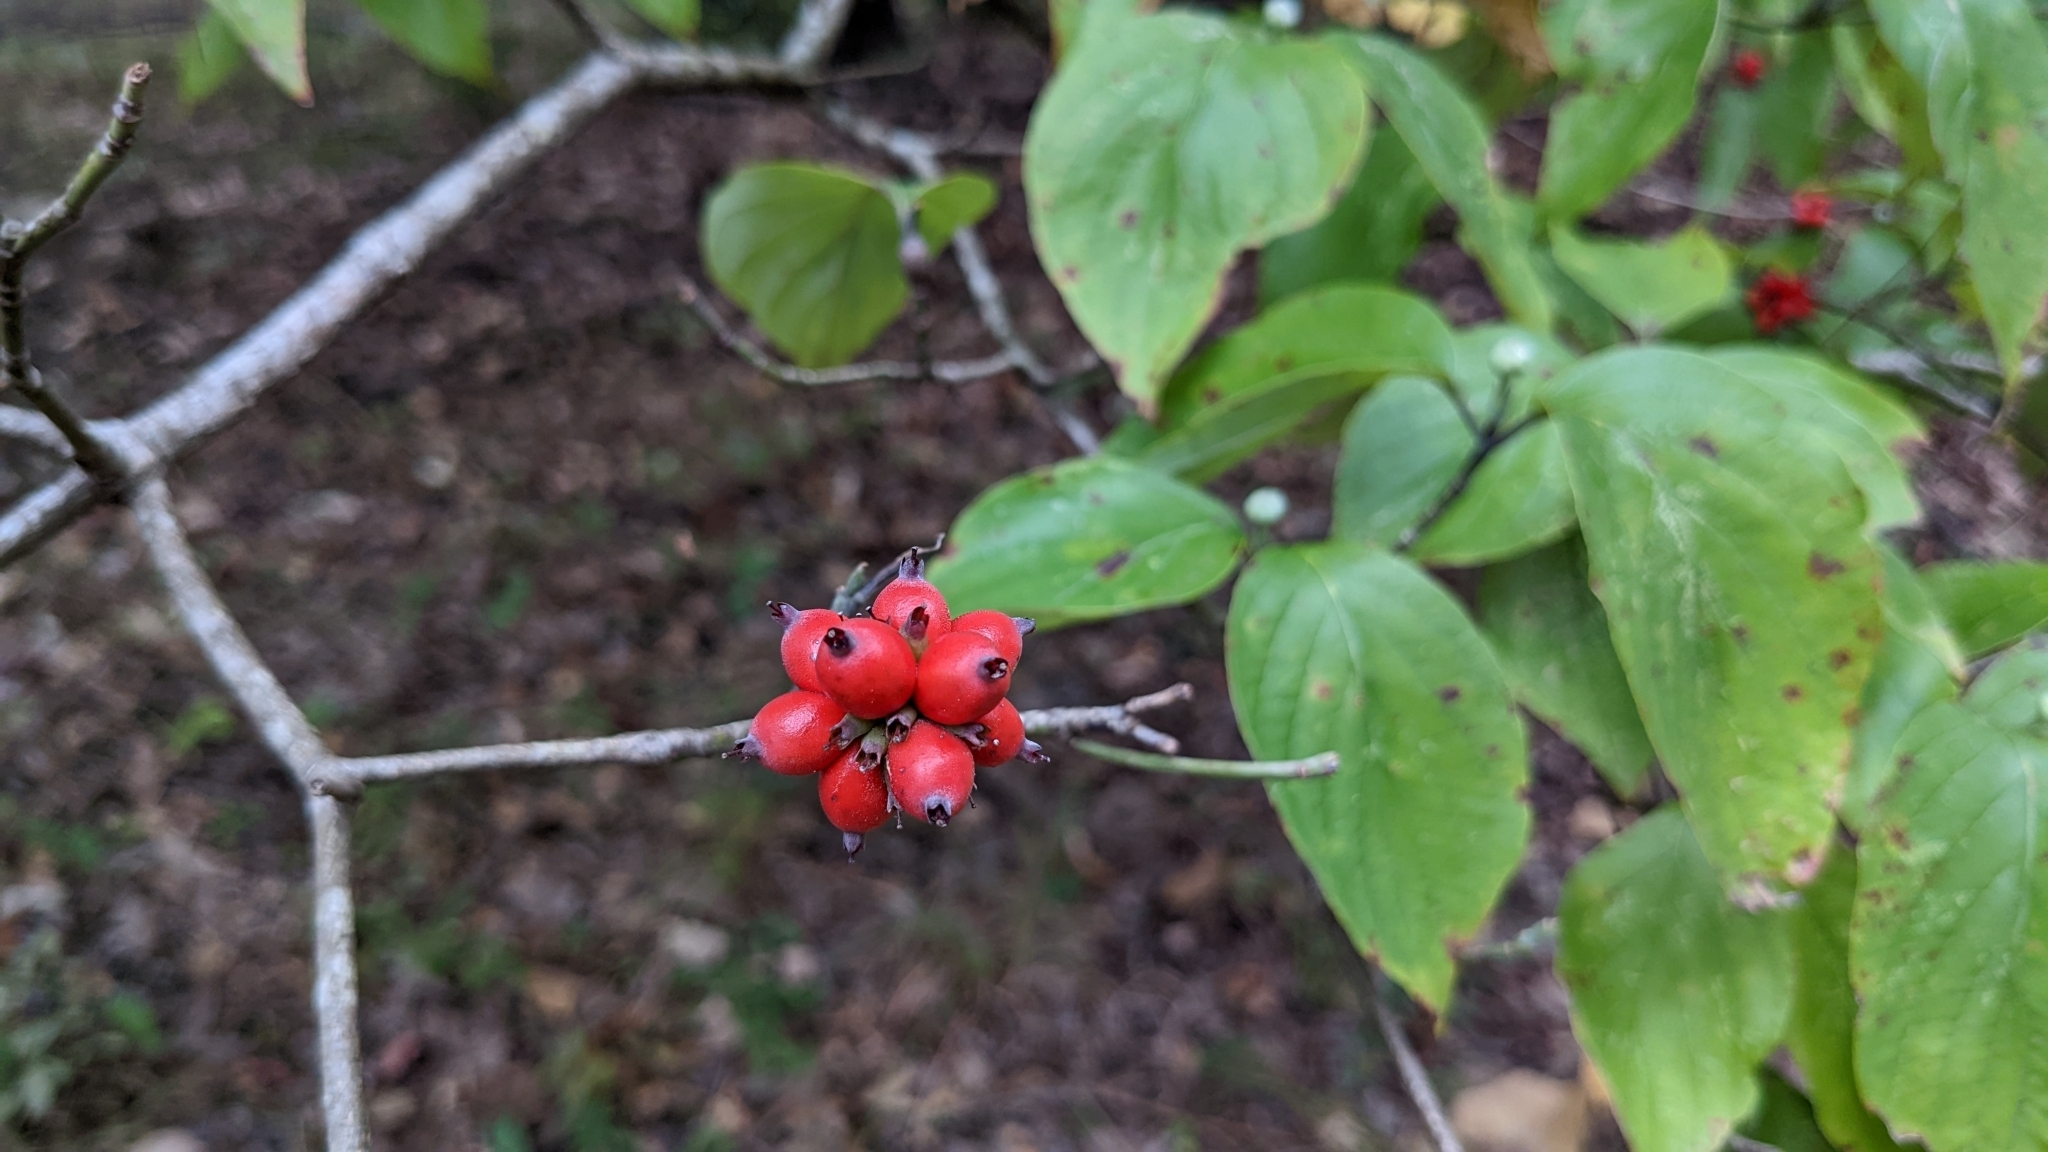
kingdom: Plantae
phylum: Tracheophyta
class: Magnoliopsida
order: Cornales
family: Cornaceae
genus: Cornus
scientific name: Cornus florida
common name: Flowering dogwood
